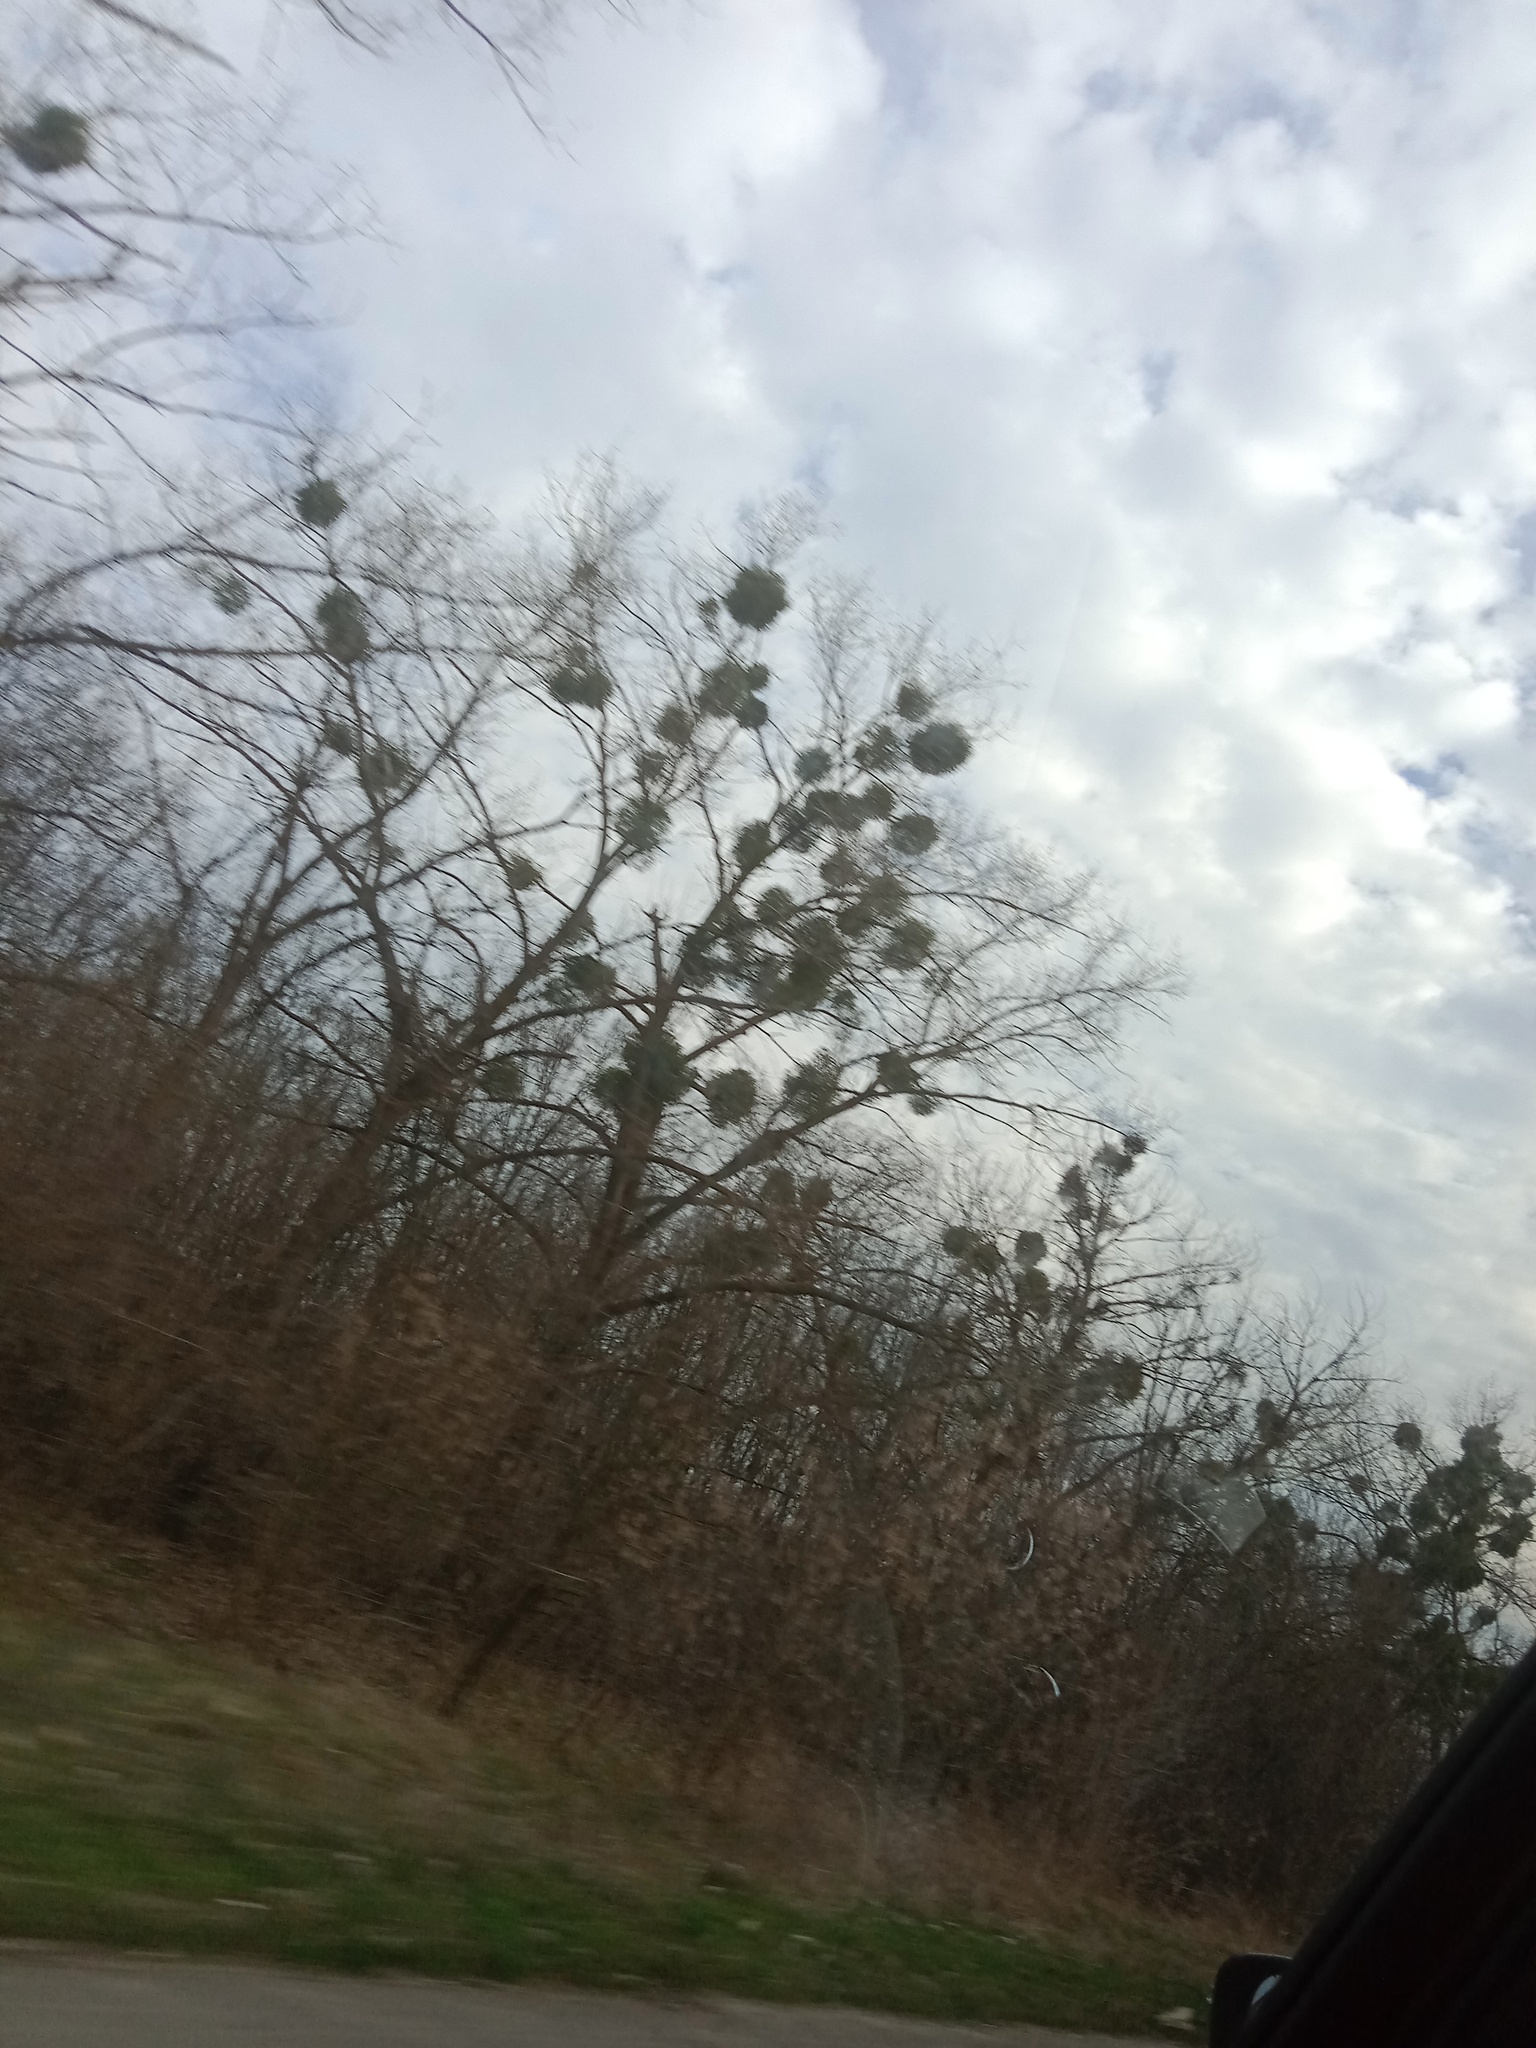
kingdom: Plantae
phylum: Tracheophyta
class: Magnoliopsida
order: Santalales
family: Viscaceae
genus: Viscum
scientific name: Viscum album
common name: Mistletoe
